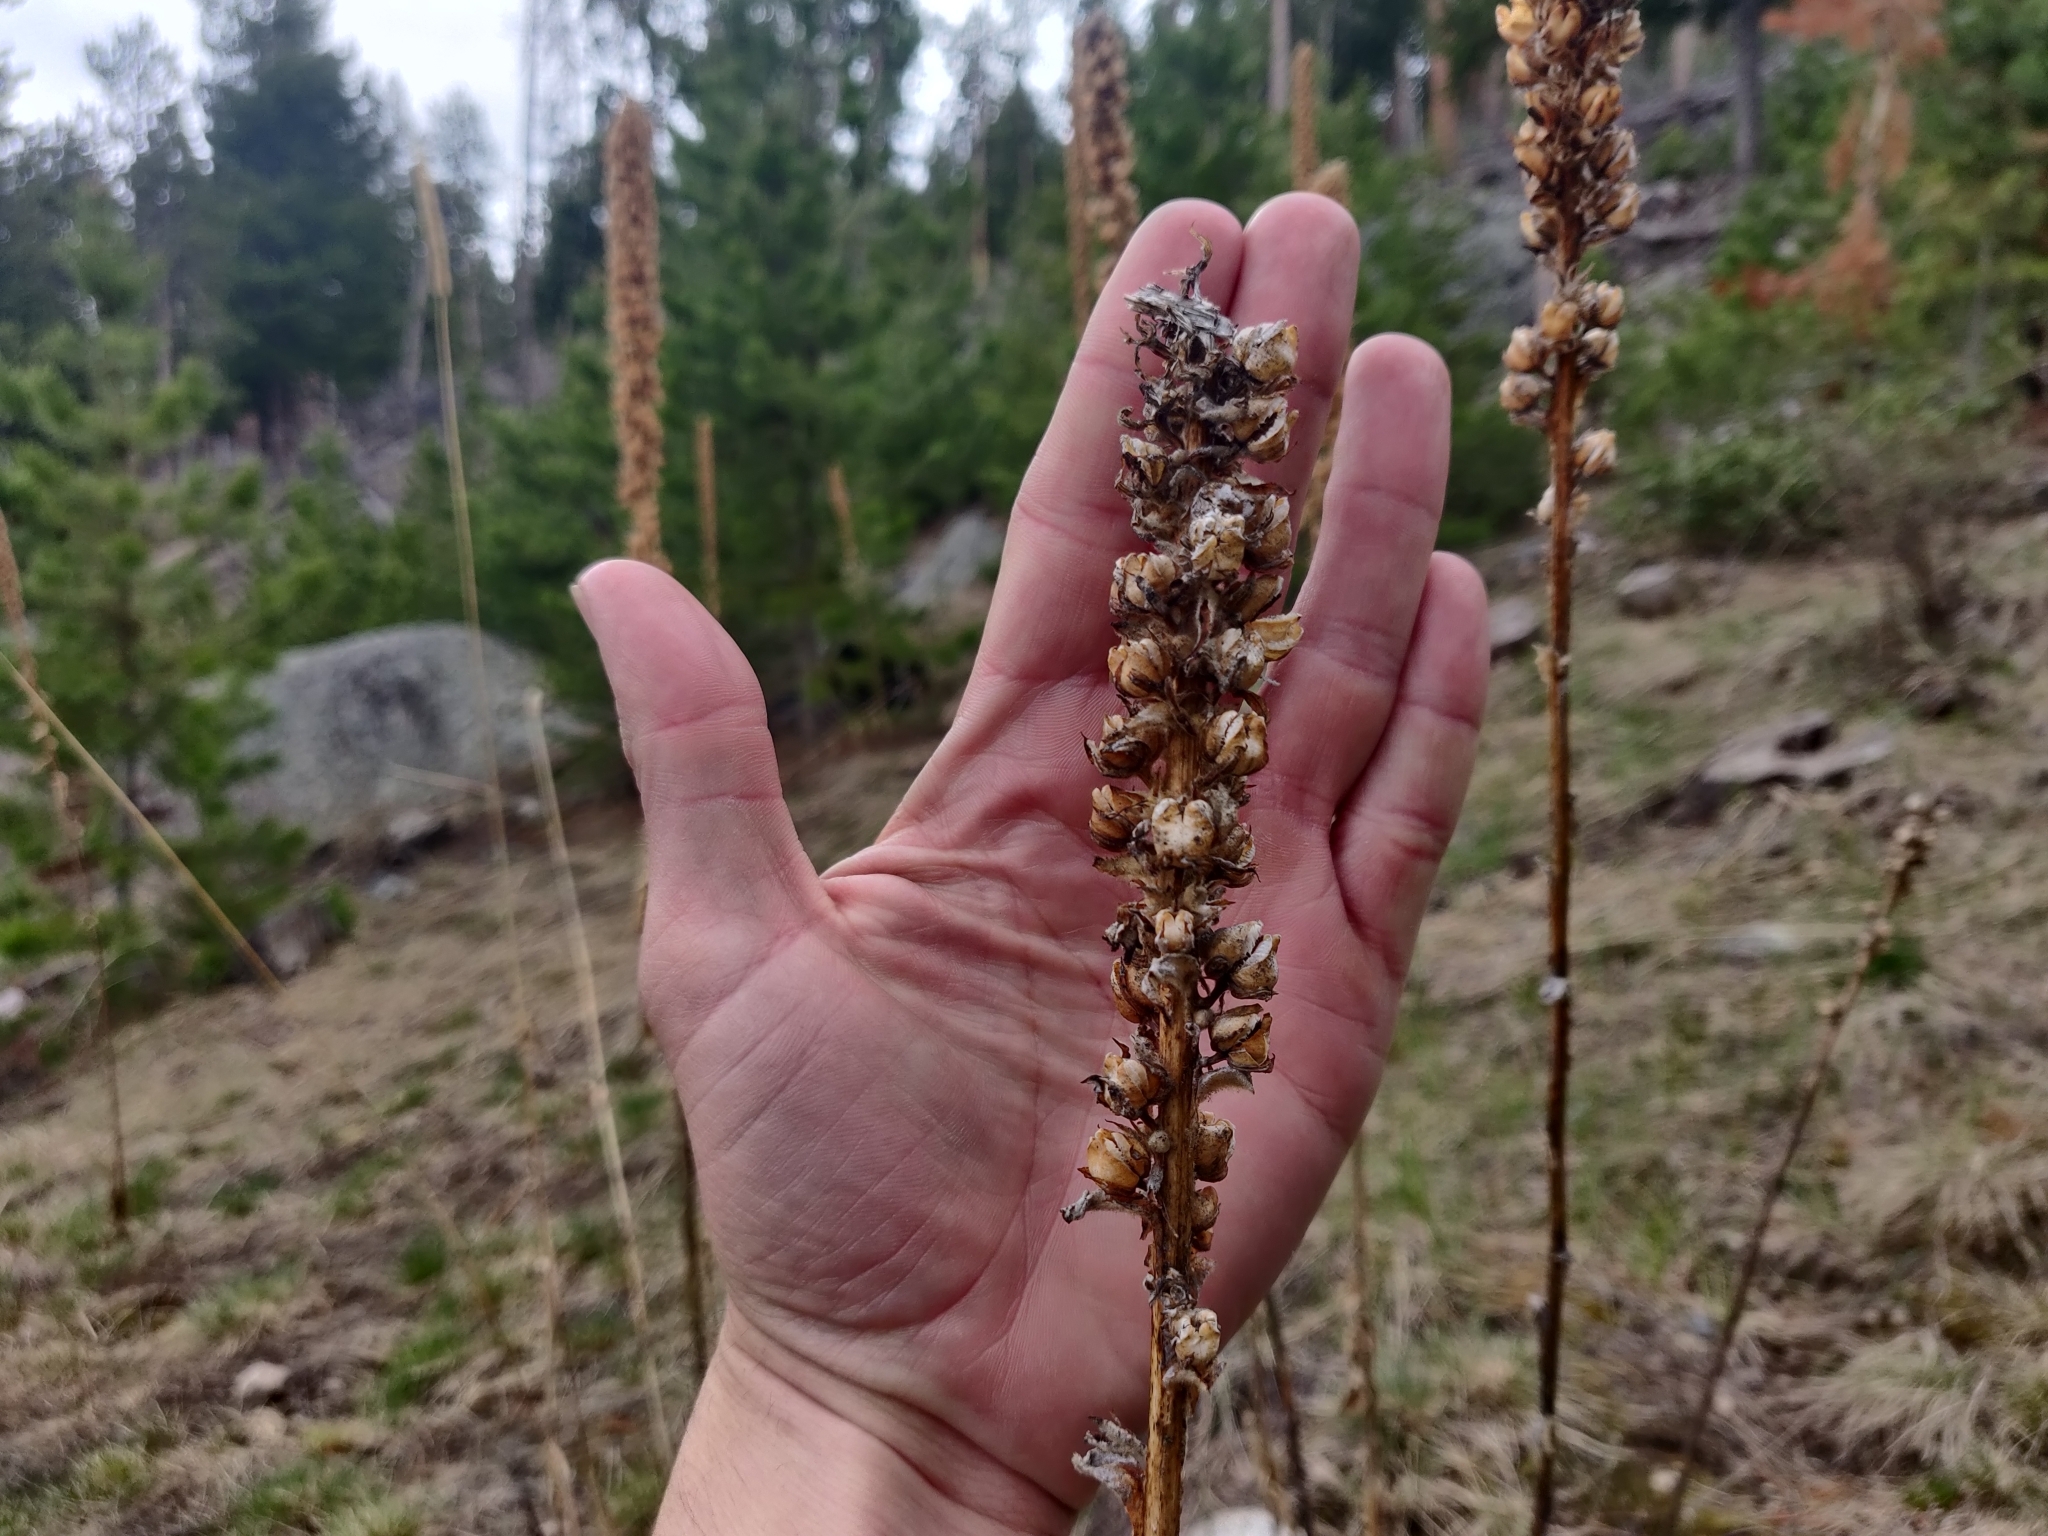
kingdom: Plantae
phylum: Tracheophyta
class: Magnoliopsida
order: Lamiales
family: Scrophulariaceae
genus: Verbascum
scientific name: Verbascum thapsus
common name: Common mullein
